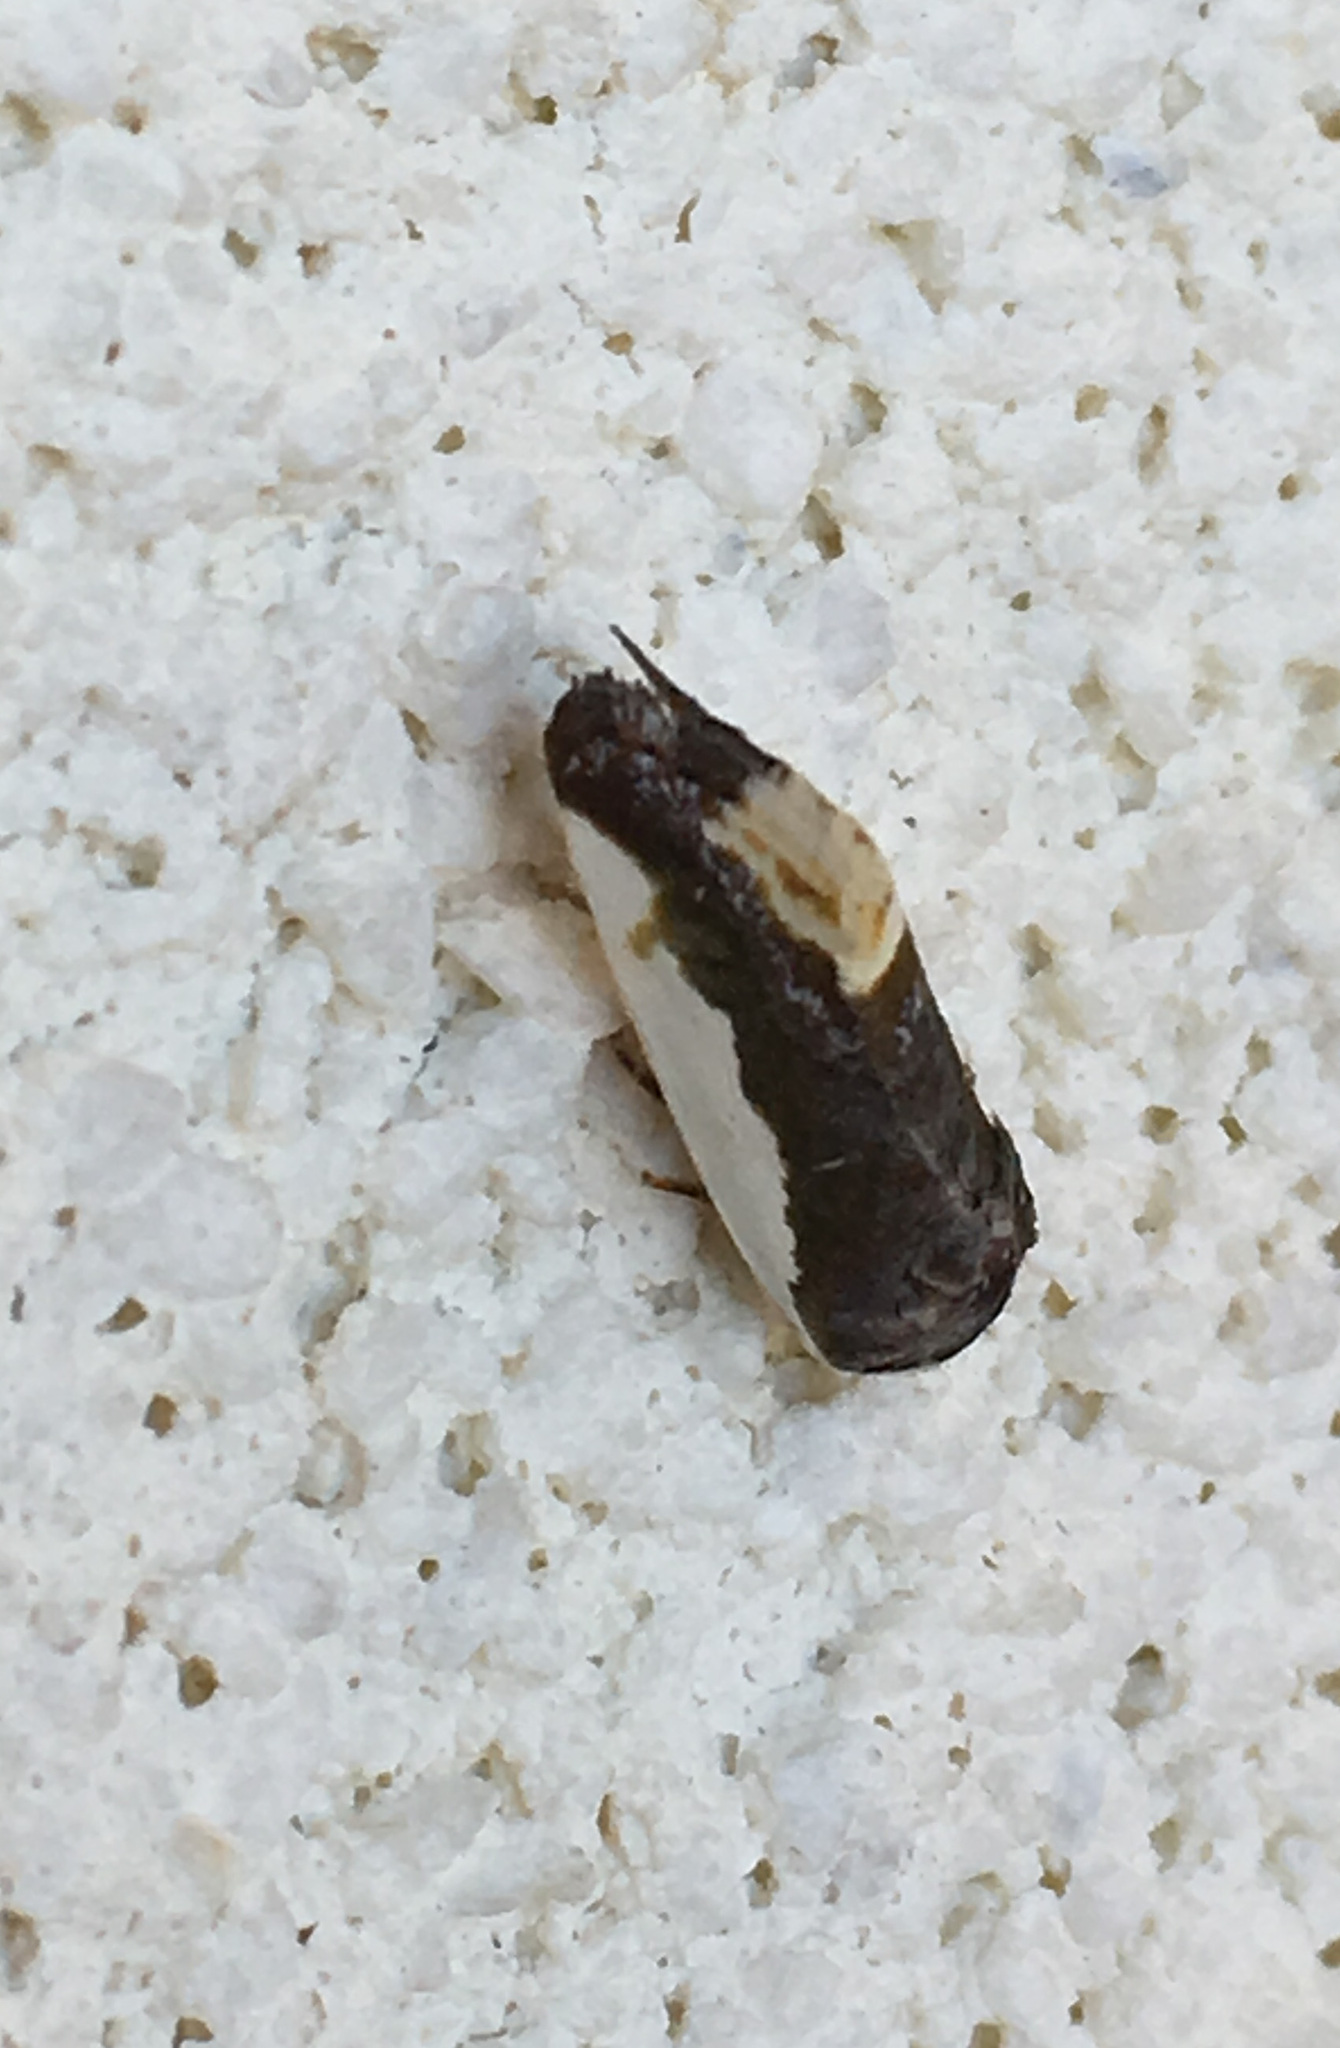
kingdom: Animalia
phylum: Arthropoda
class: Insecta
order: Lepidoptera
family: Noctuidae
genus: Acontia
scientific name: Acontia Tarache expolita
